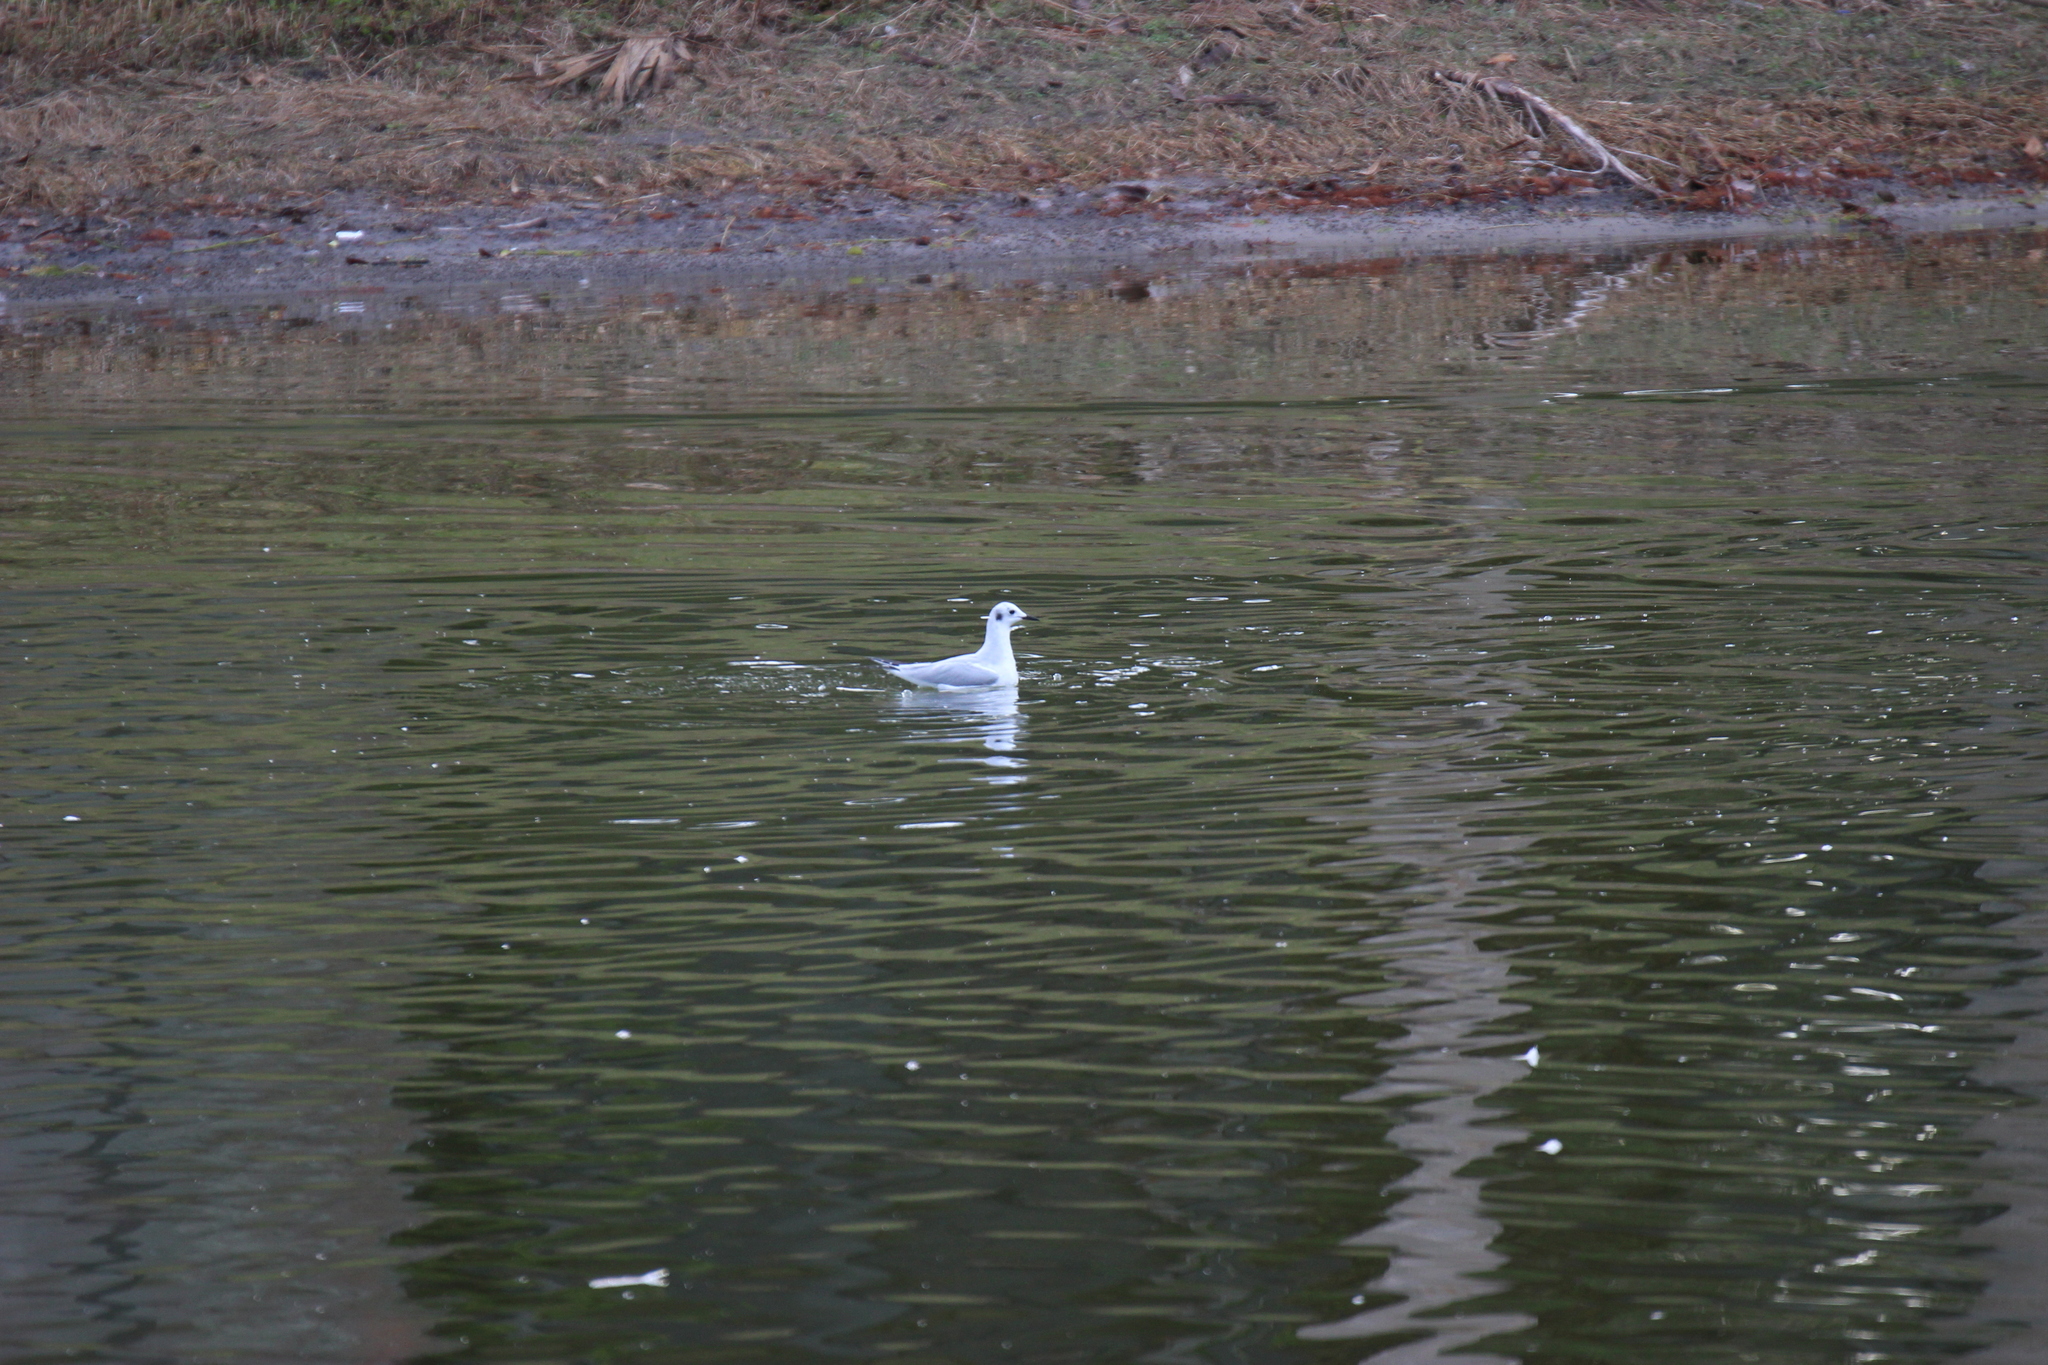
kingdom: Animalia
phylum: Chordata
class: Aves
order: Charadriiformes
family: Laridae
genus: Chroicocephalus
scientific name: Chroicocephalus philadelphia
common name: Bonaparte's gull
